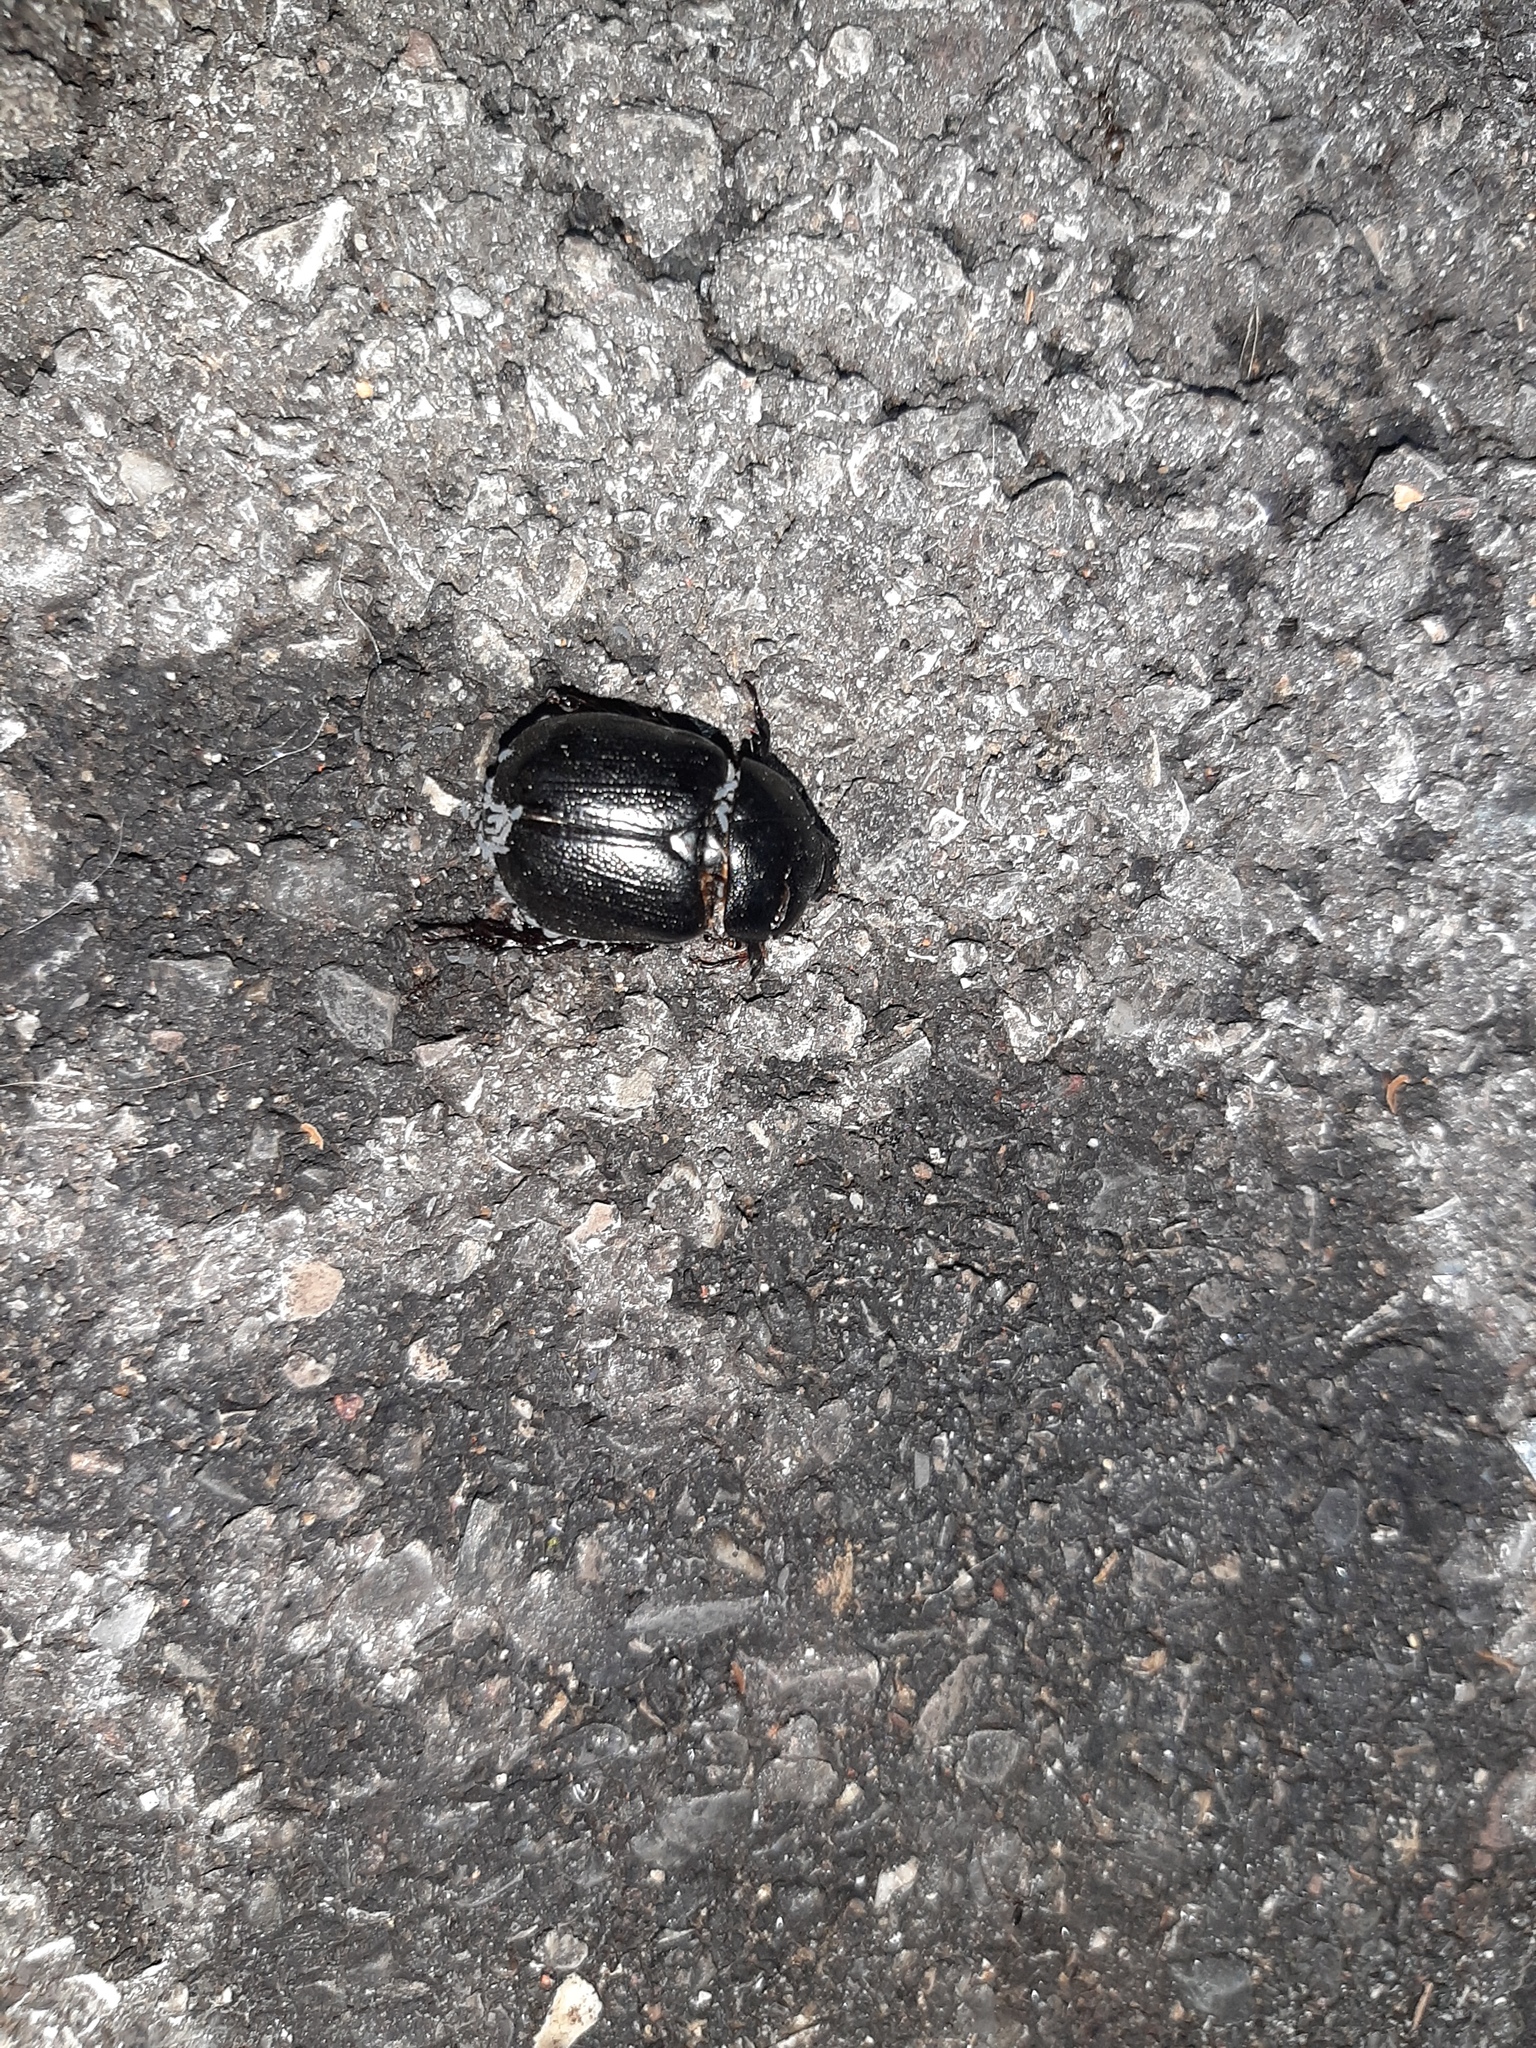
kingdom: Animalia
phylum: Arthropoda
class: Insecta
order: Coleoptera
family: Scarabaeidae
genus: Pentodon
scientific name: Pentodon bidens
